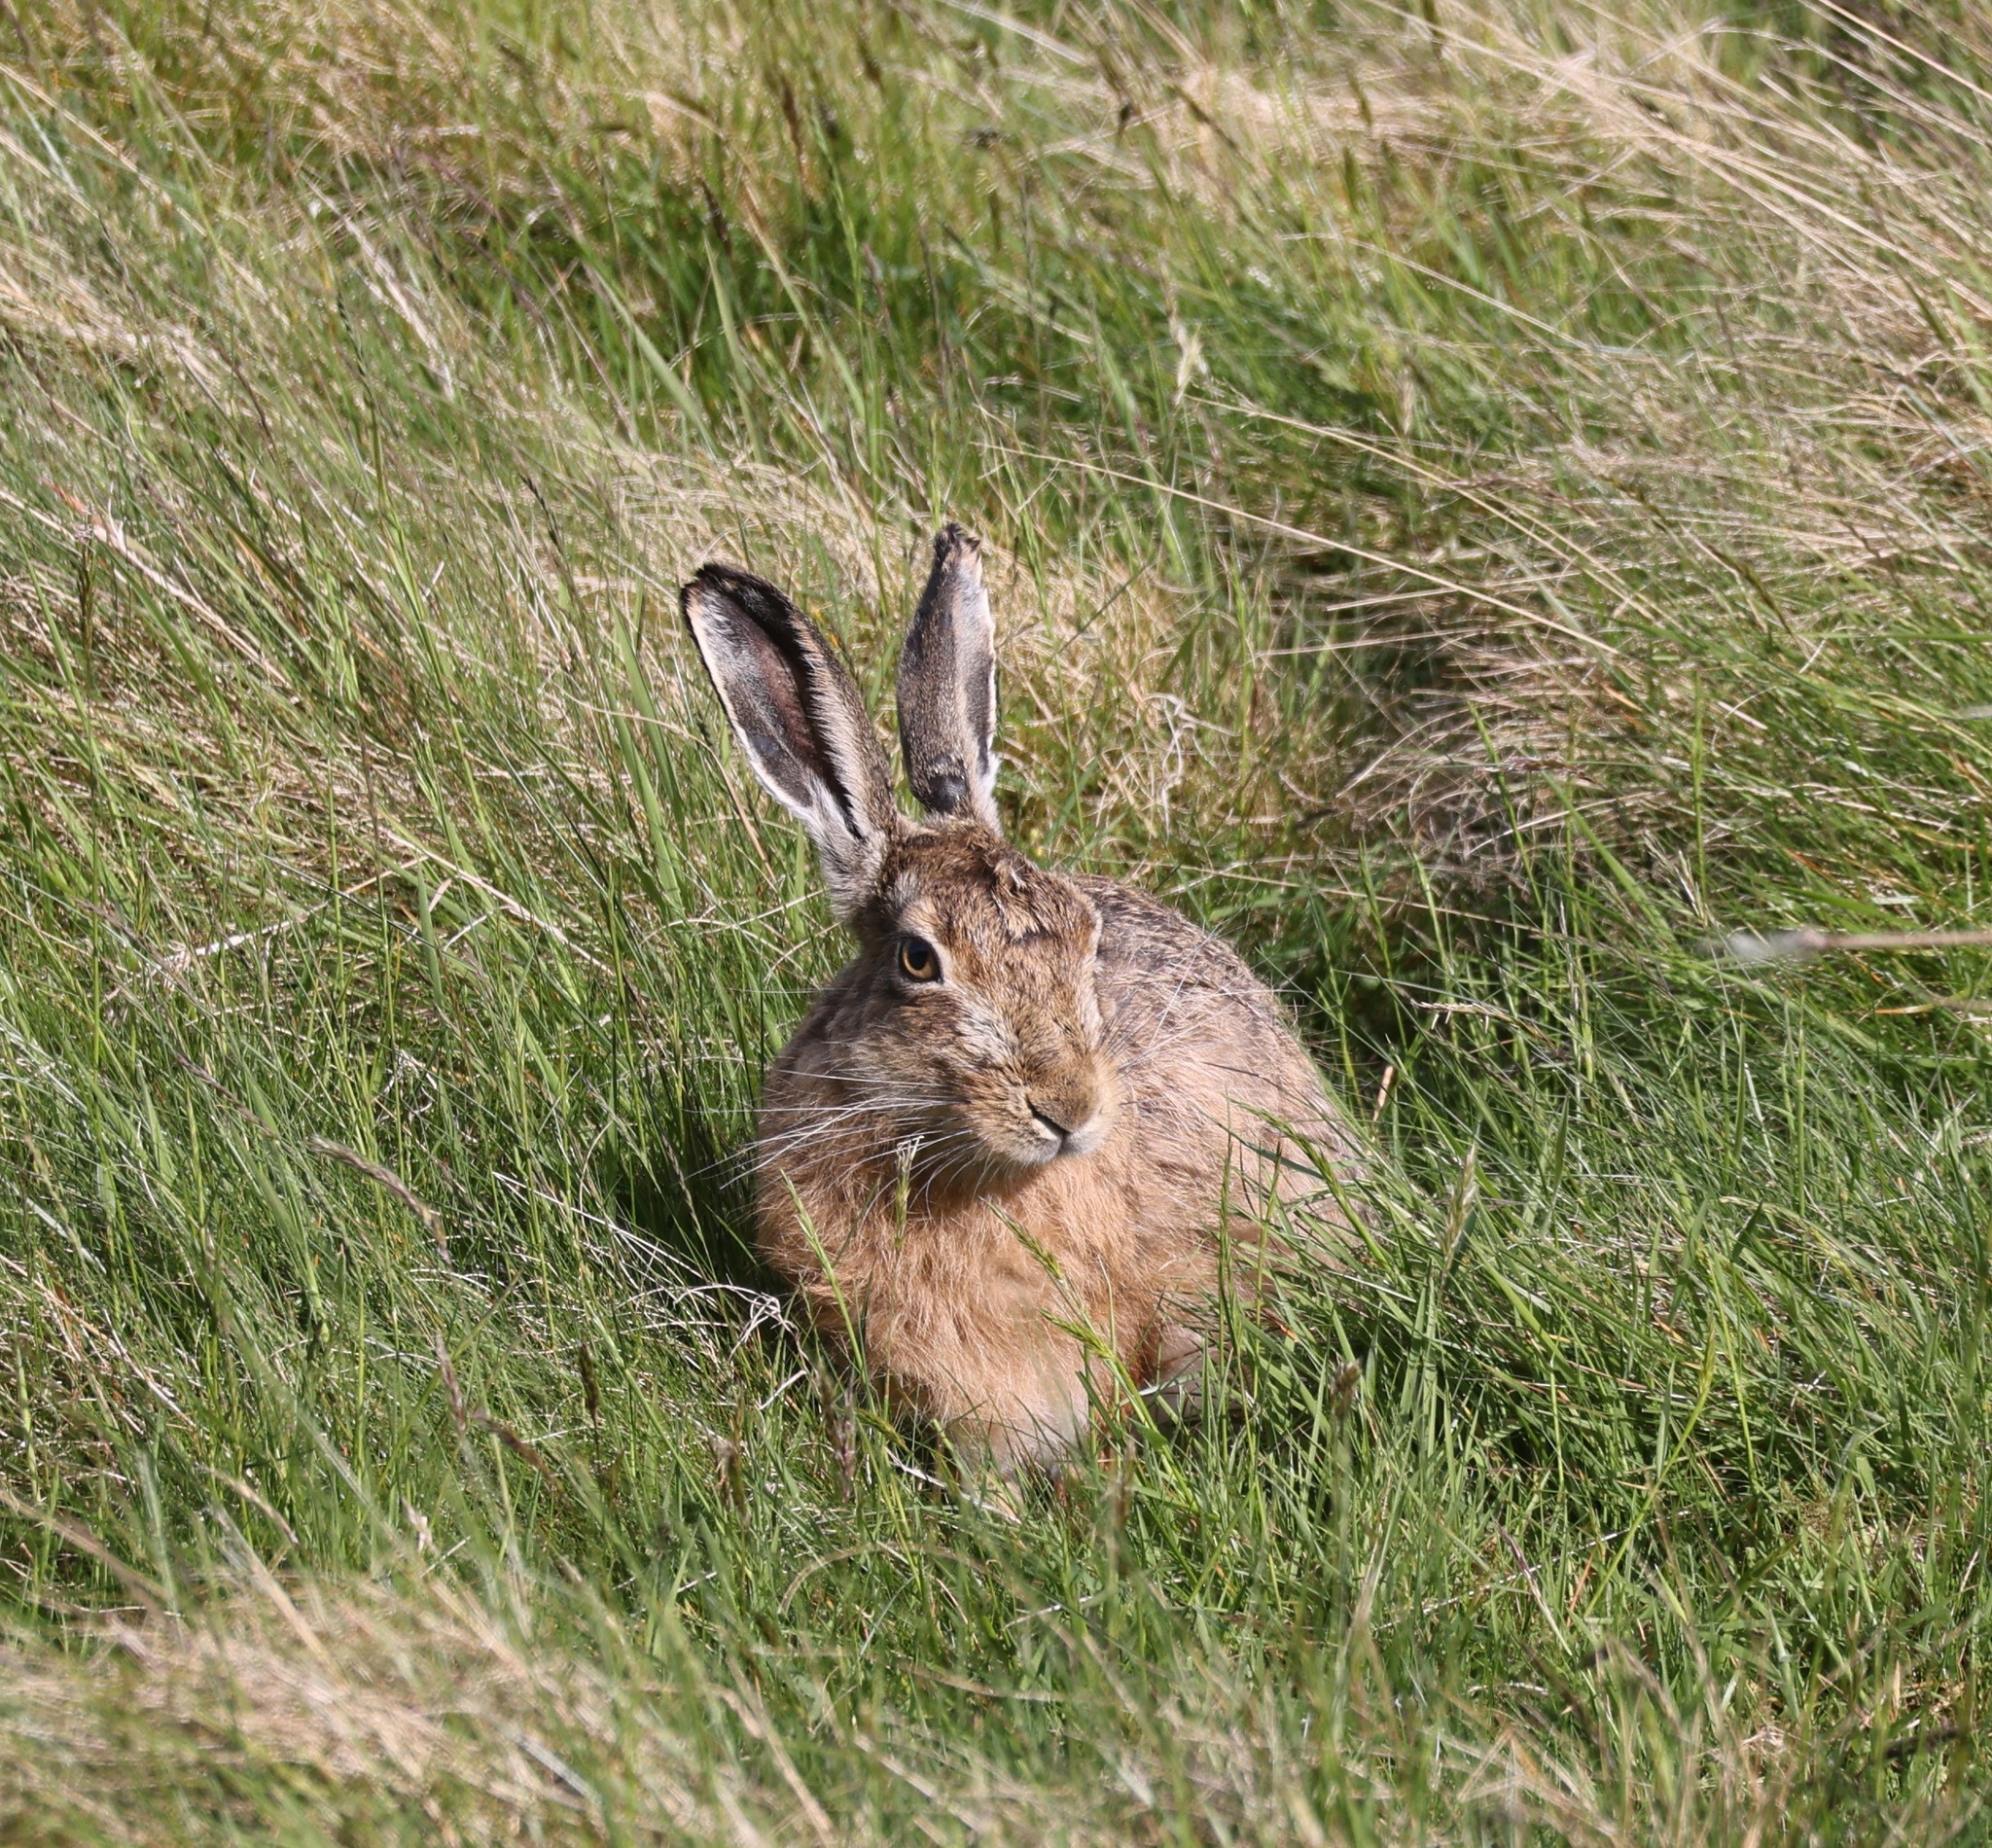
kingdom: Animalia
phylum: Chordata
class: Mammalia
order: Lagomorpha
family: Leporidae
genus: Lepus
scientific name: Lepus europaeus
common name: European hare
